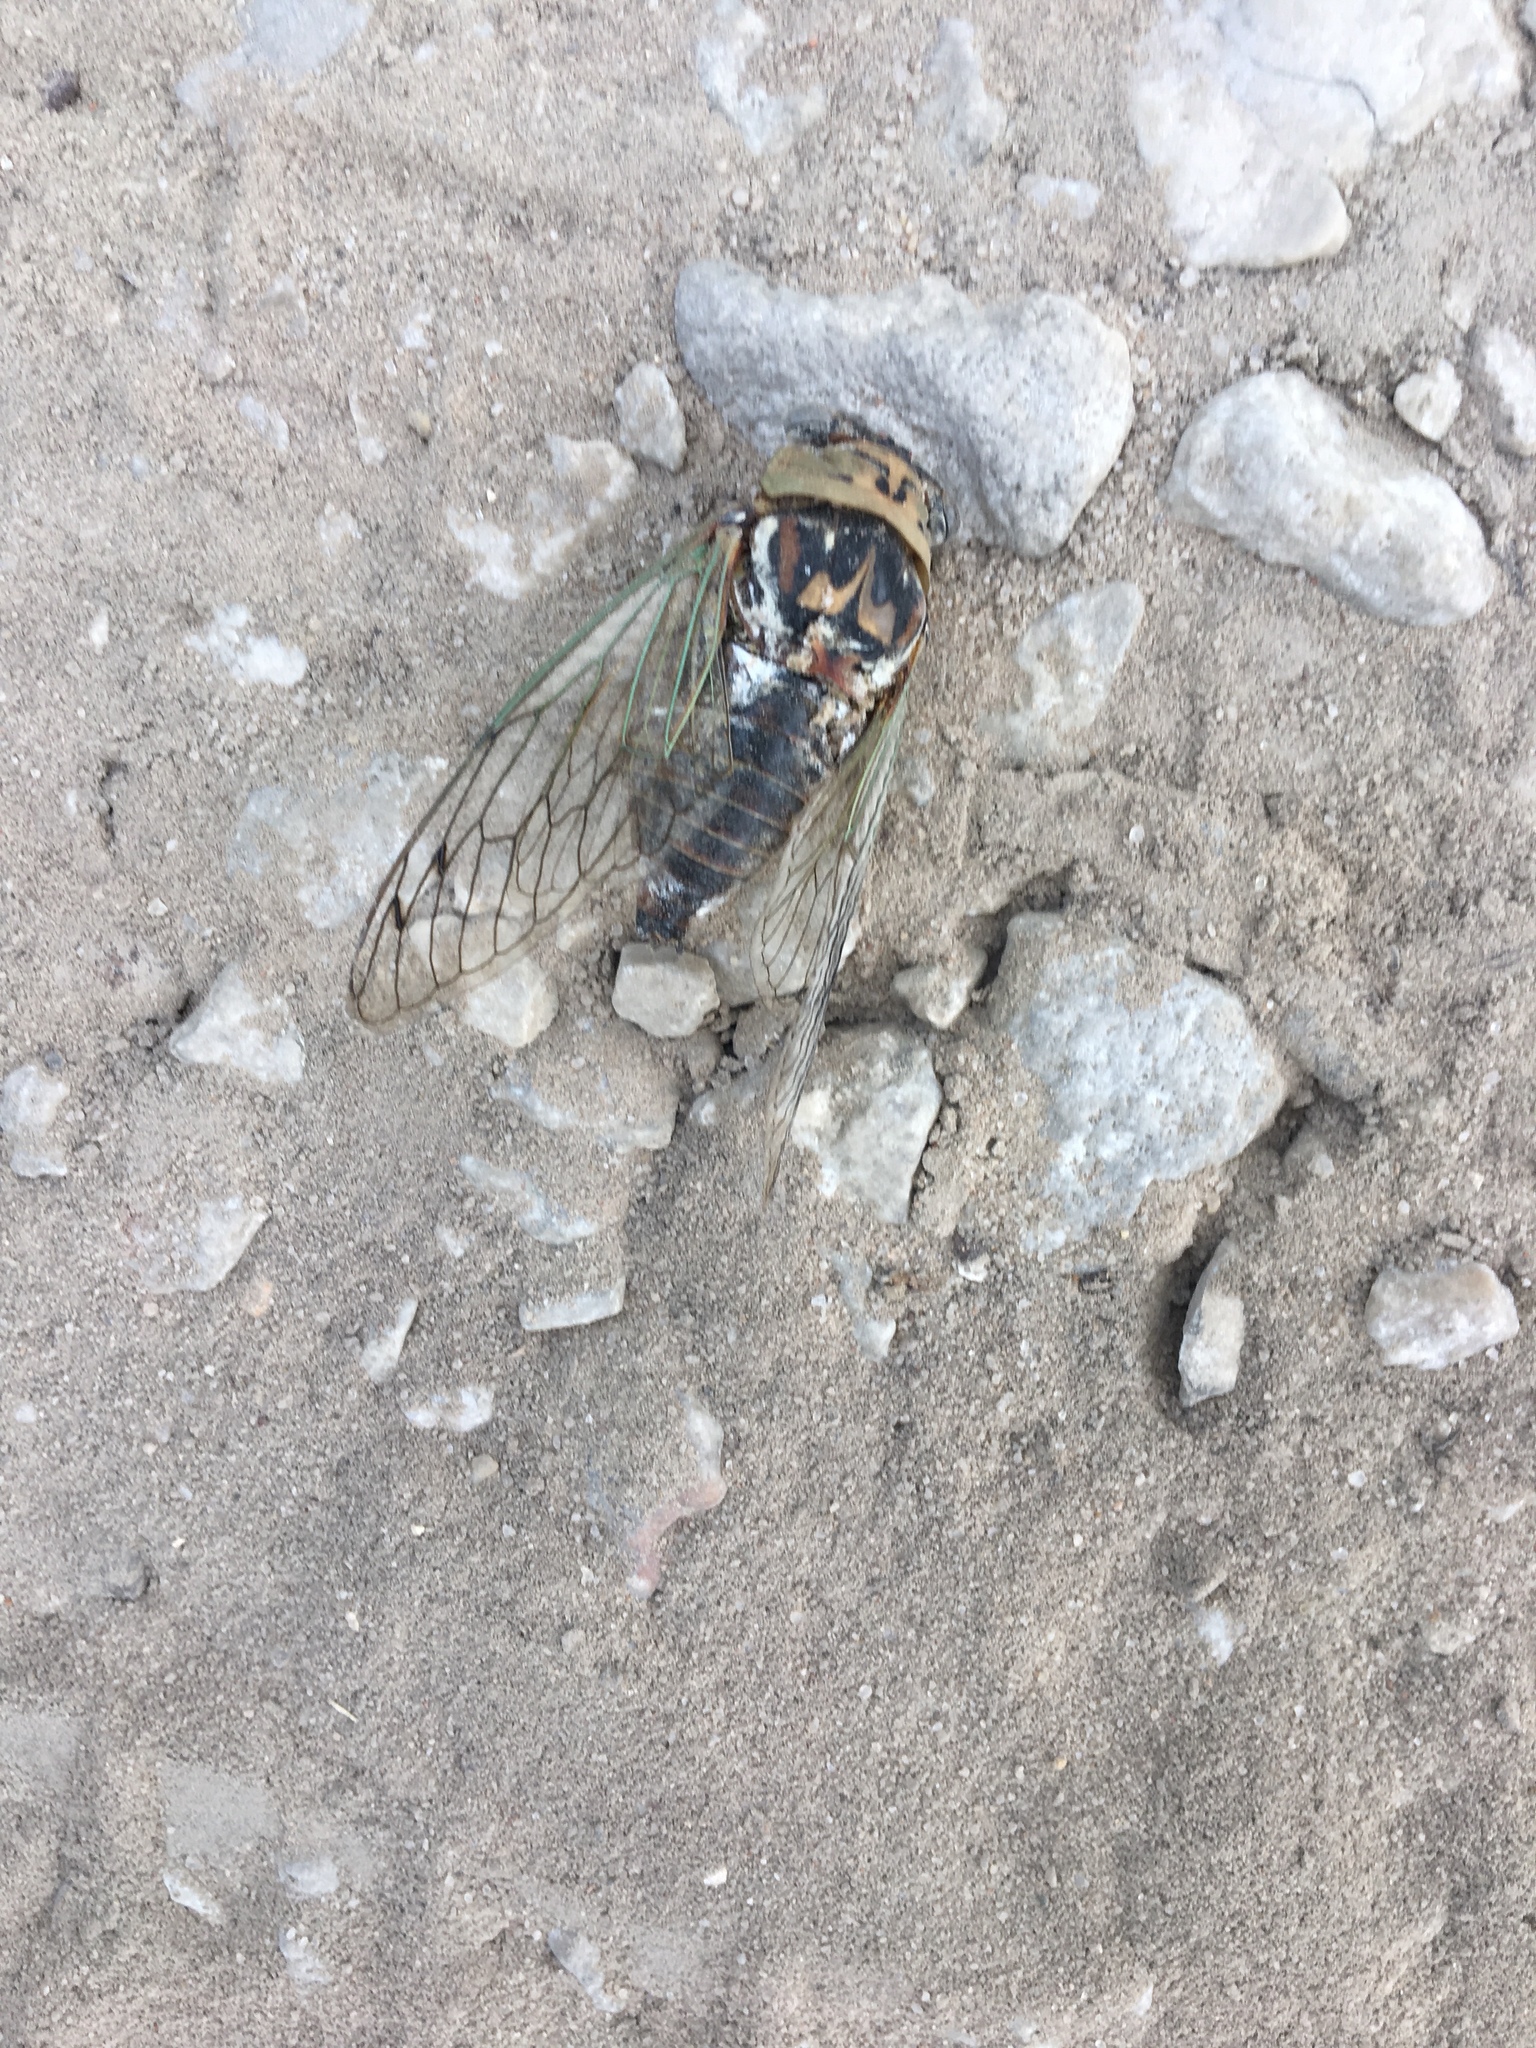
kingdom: Animalia
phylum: Arthropoda
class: Insecta
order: Hemiptera
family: Cicadidae
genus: Megatibicen
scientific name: Megatibicen resh
